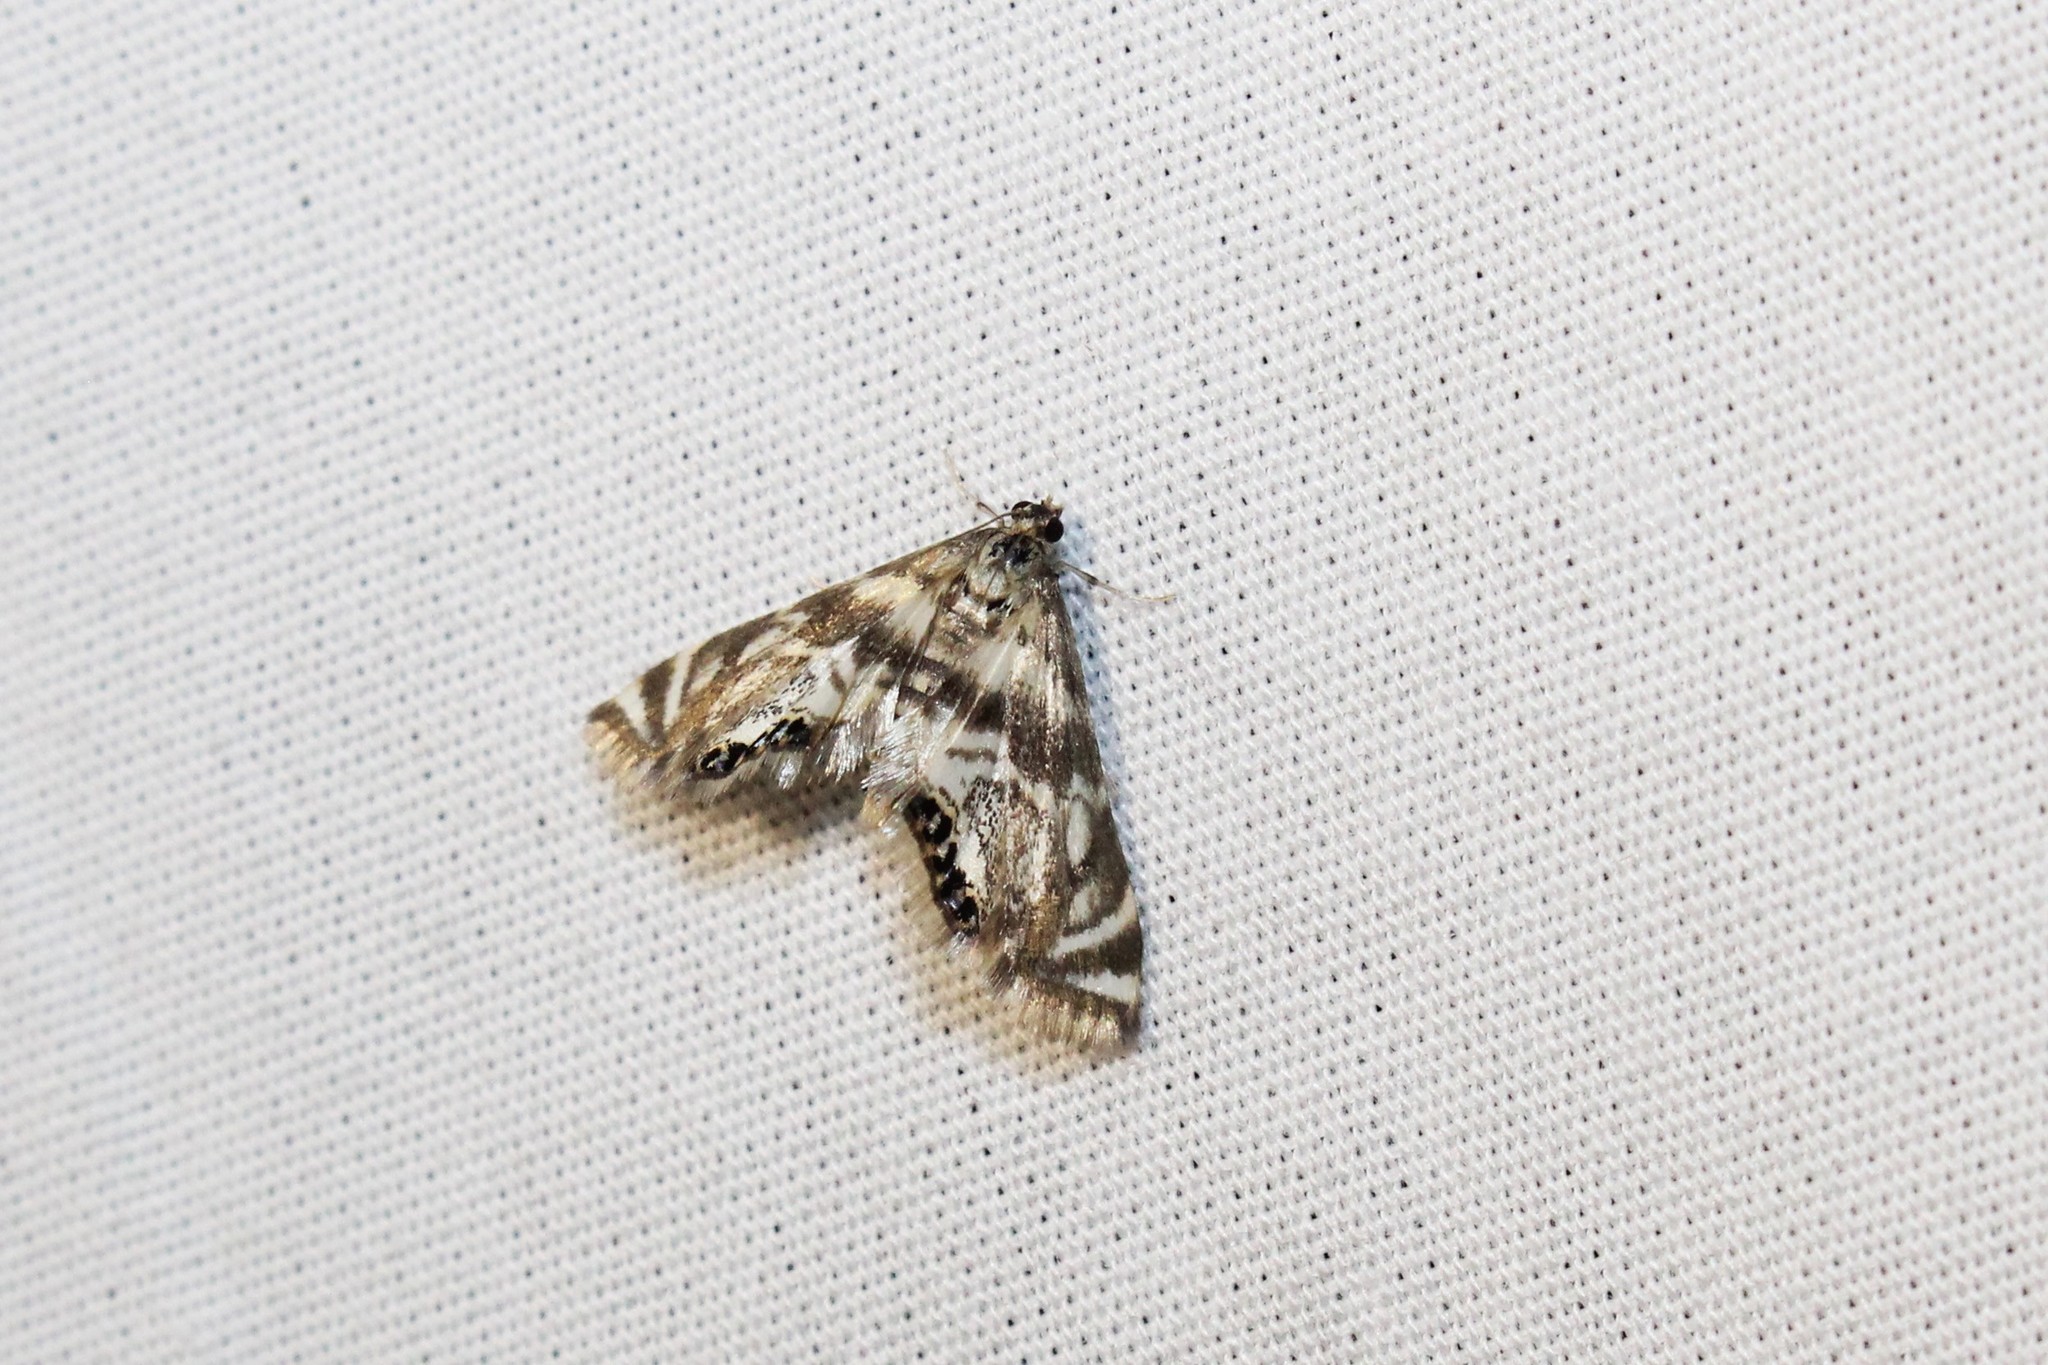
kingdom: Animalia
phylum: Arthropoda
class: Insecta
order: Lepidoptera
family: Crambidae
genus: Petrophila
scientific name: Petrophila canadensis
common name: Canadian petrophila
